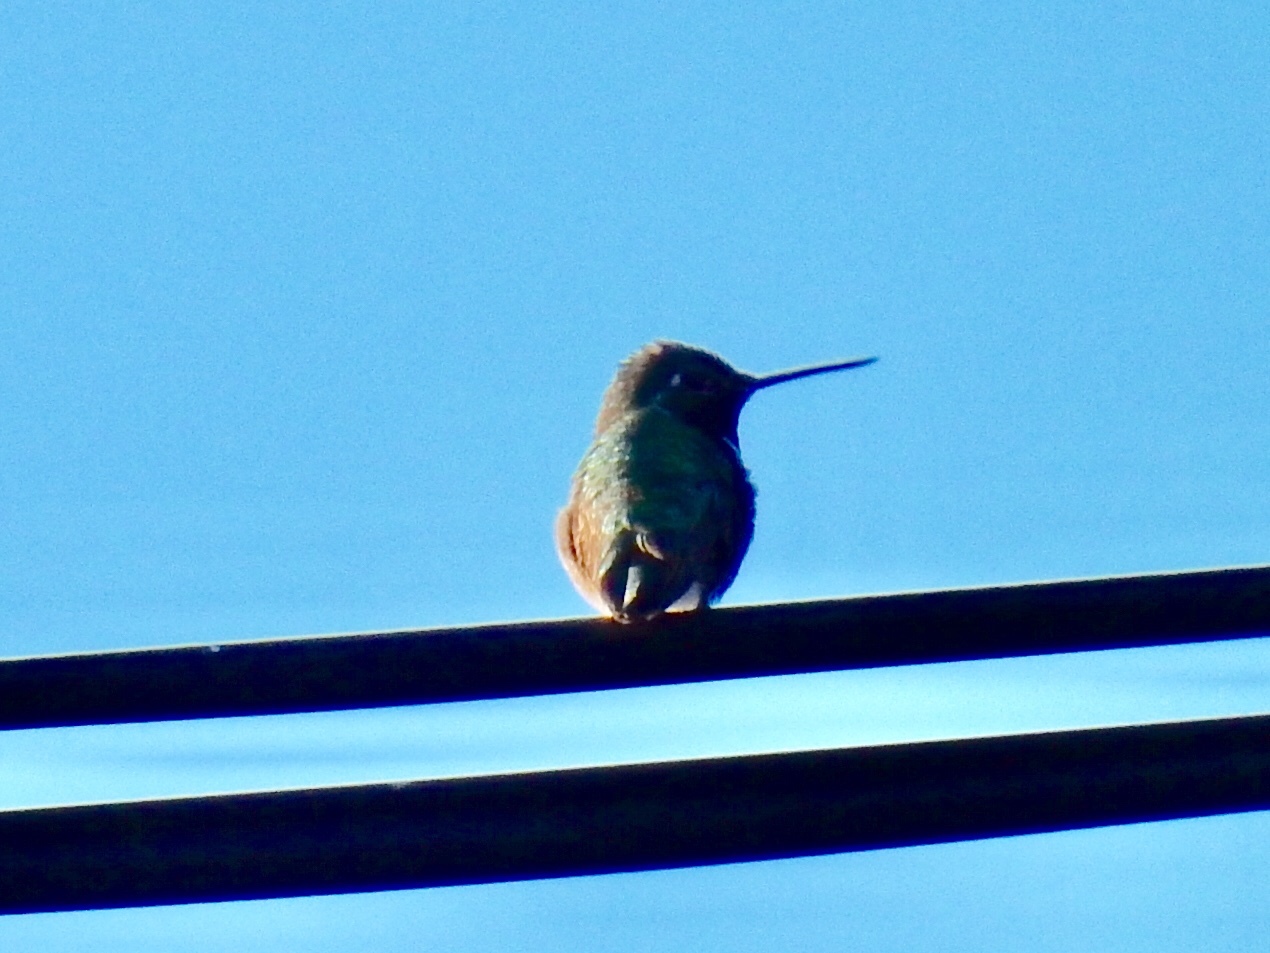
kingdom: Animalia
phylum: Chordata
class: Aves
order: Apodiformes
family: Trochilidae
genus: Selasphorus
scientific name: Selasphorus platycercus
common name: Broad-tailed hummingbird
